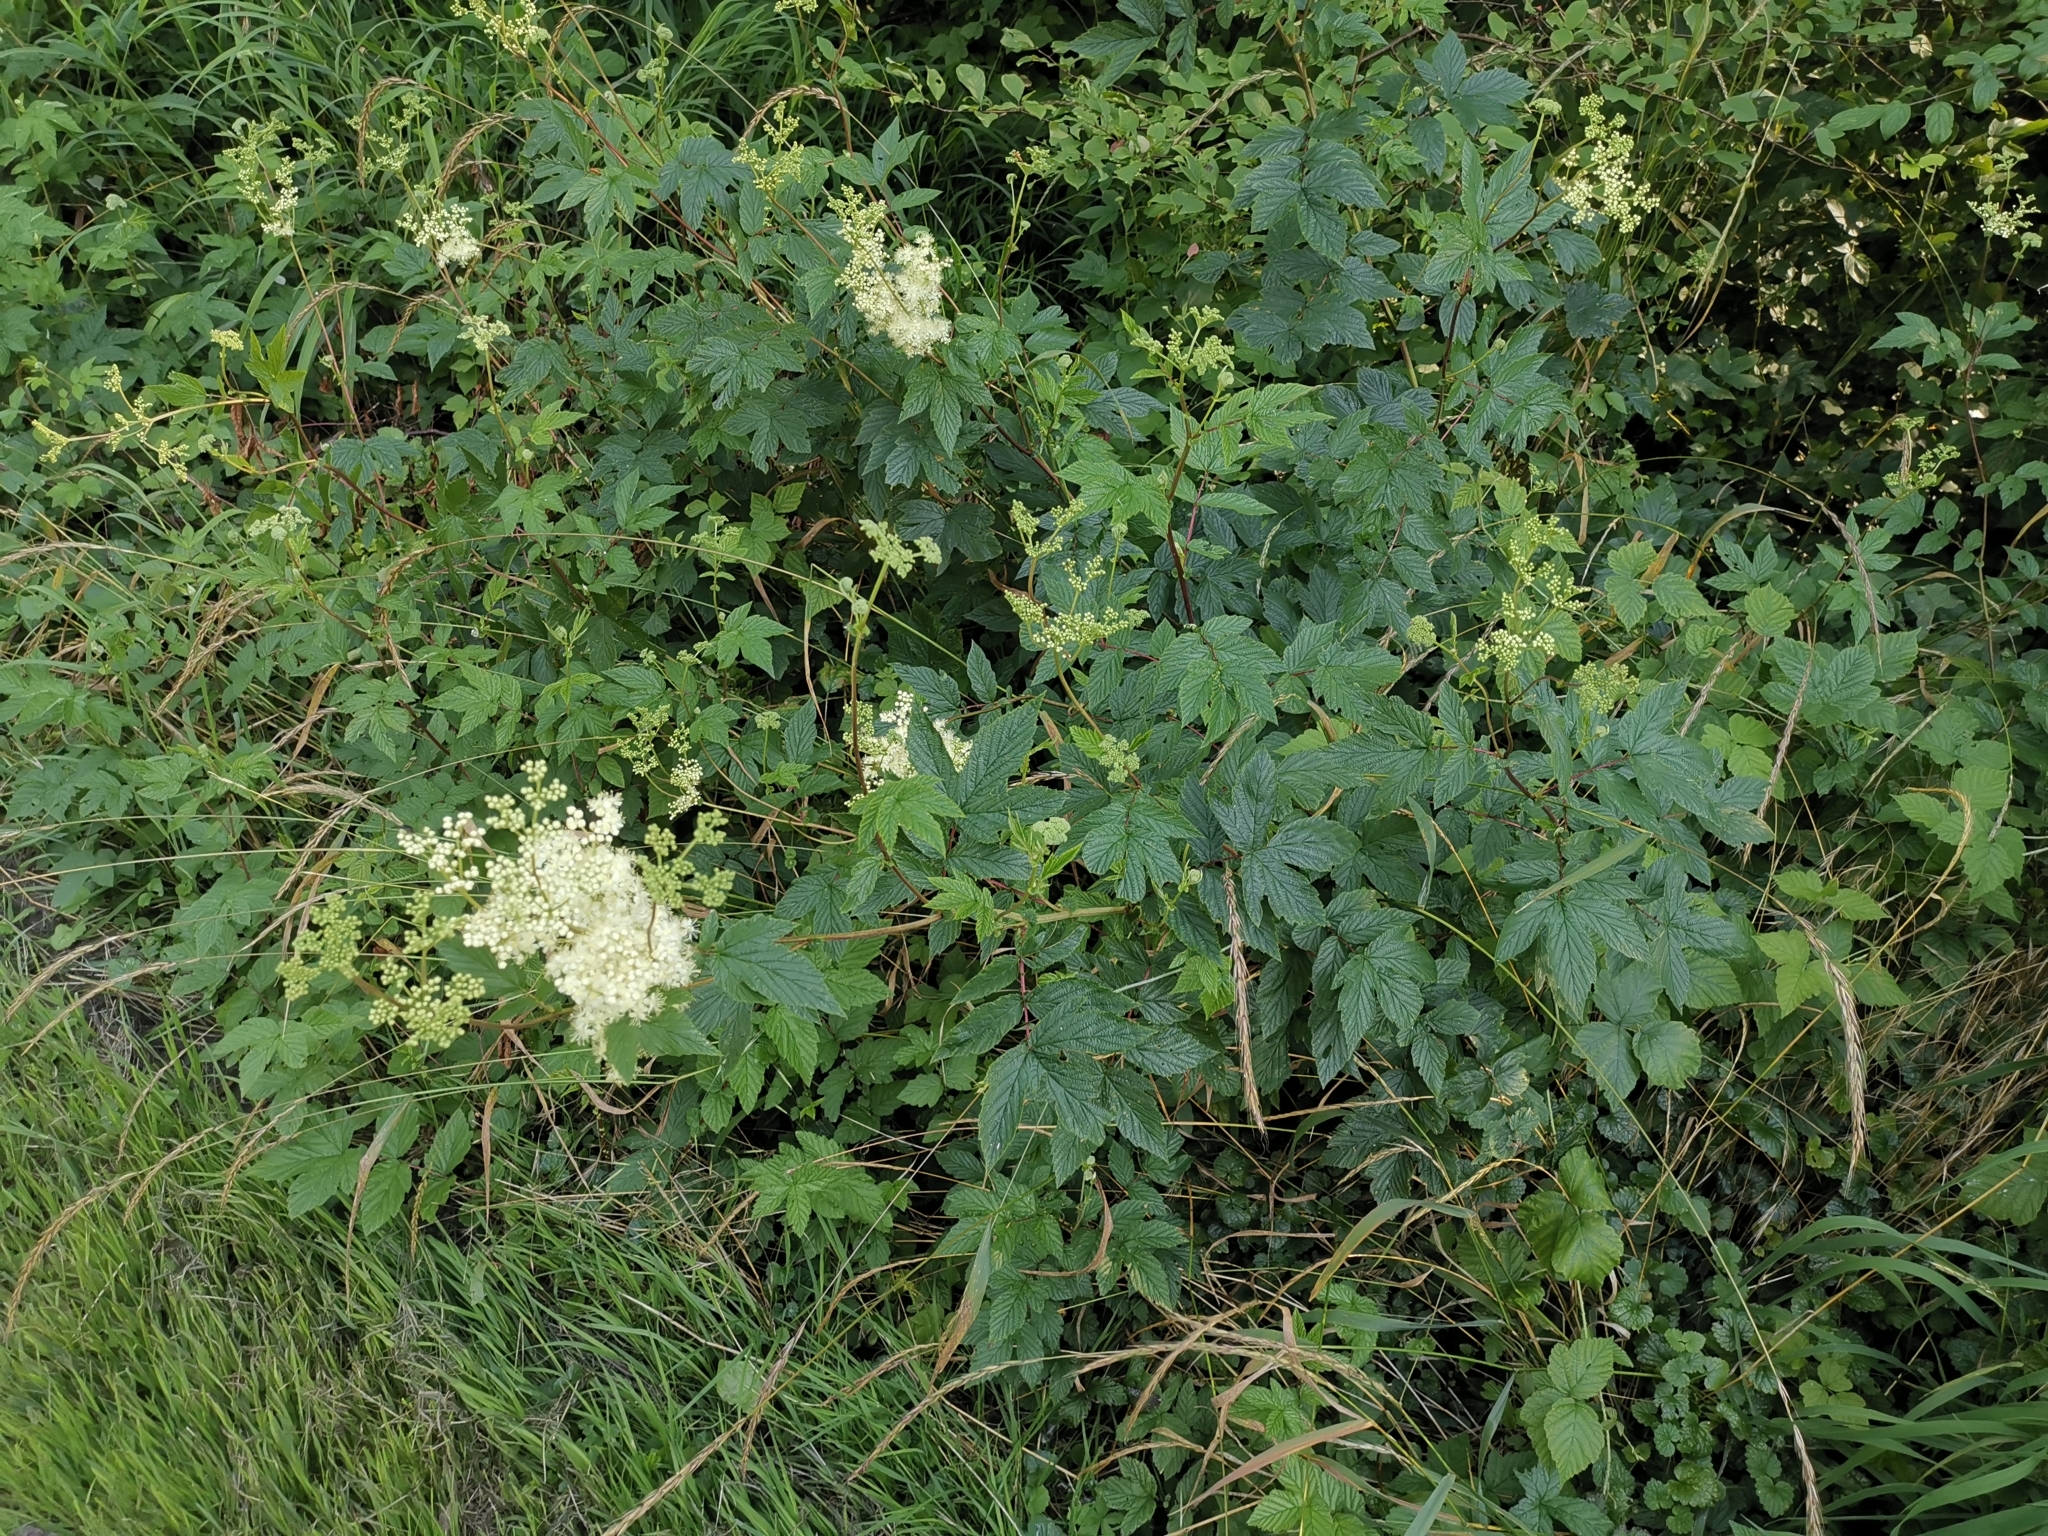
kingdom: Plantae
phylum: Tracheophyta
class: Magnoliopsida
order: Rosales
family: Rosaceae
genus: Filipendula
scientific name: Filipendula ulmaria
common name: Meadowsweet
